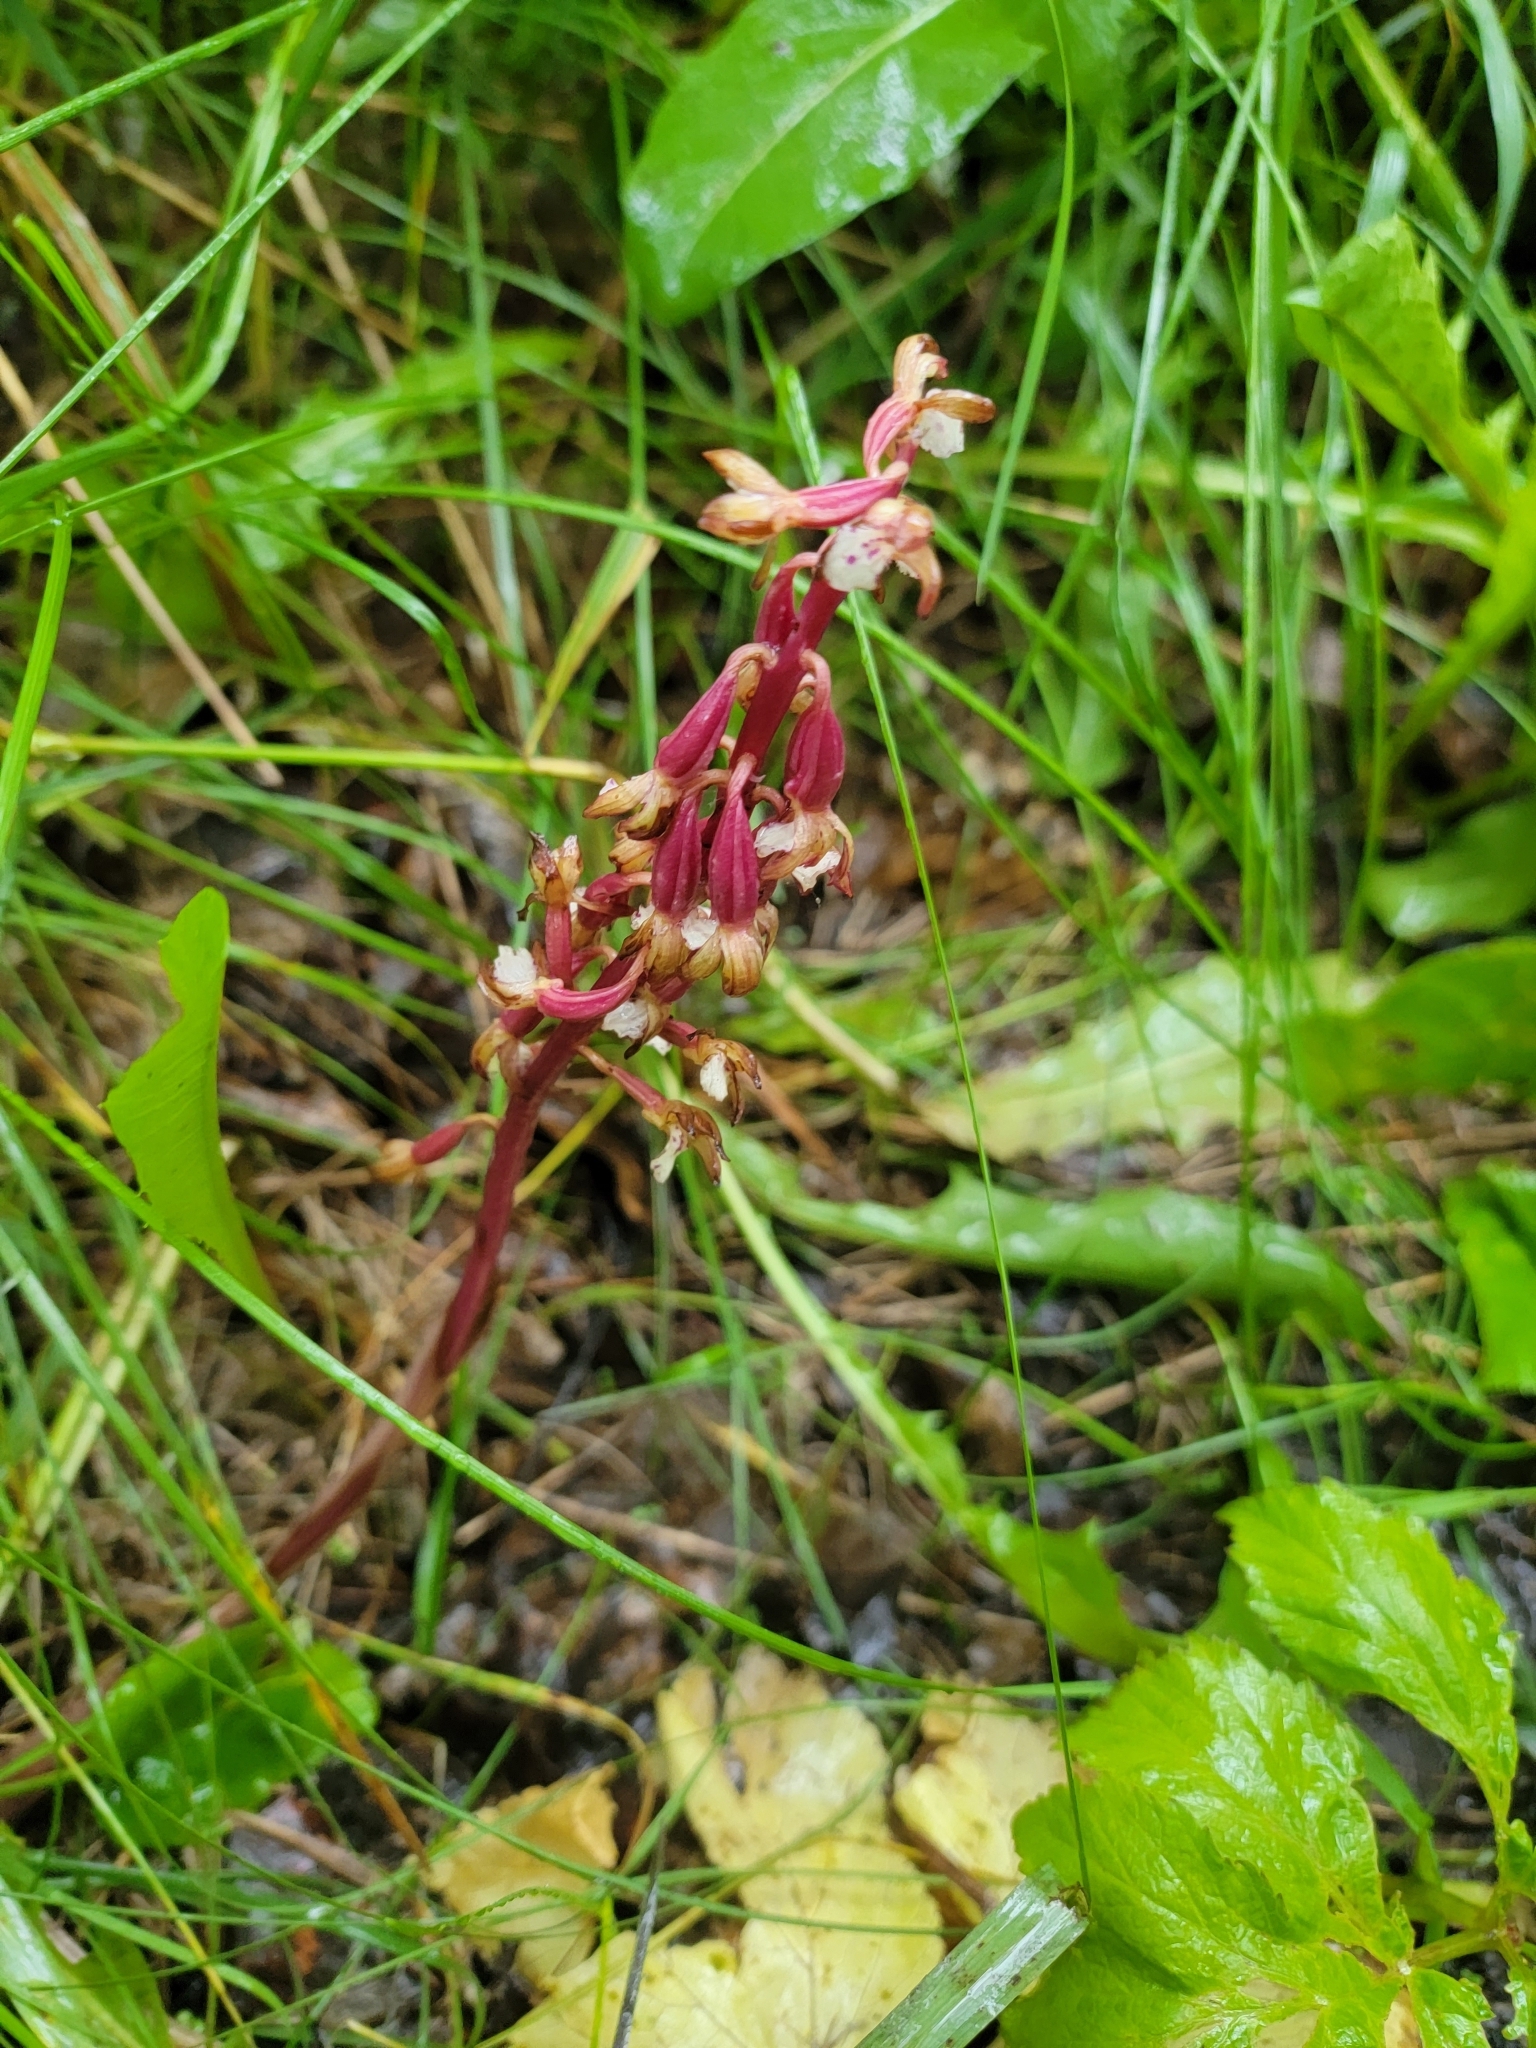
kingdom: Plantae
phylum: Tracheophyta
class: Liliopsida
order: Asparagales
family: Orchidaceae
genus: Corallorhiza
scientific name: Corallorhiza maculata
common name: Spotted coralroot
